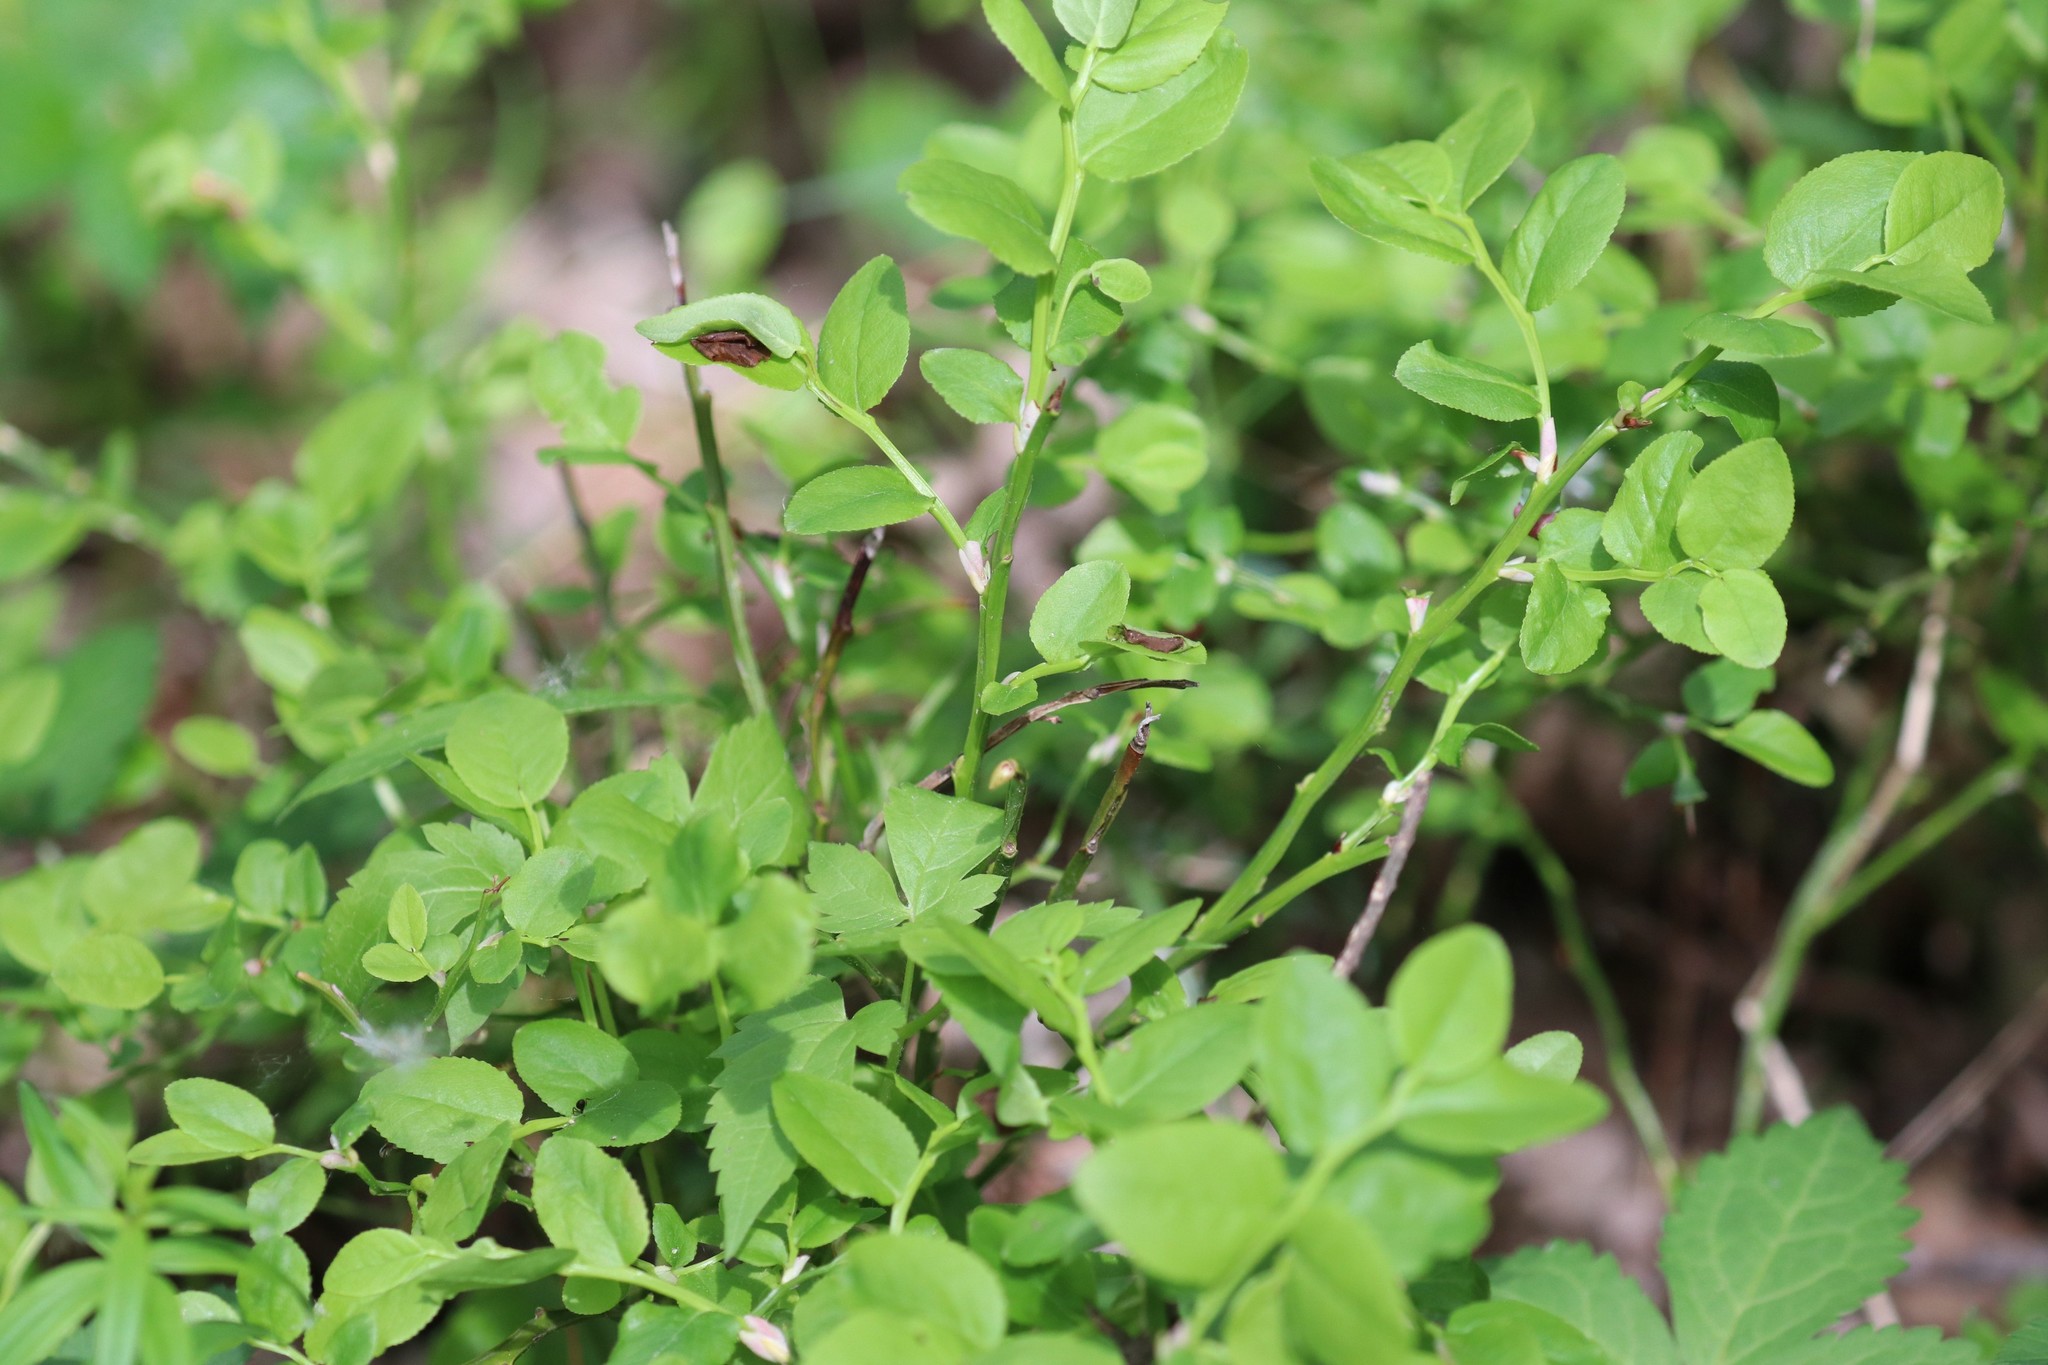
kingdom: Plantae
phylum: Tracheophyta
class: Magnoliopsida
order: Ericales
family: Ericaceae
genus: Vaccinium
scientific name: Vaccinium myrtillus
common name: Bilberry
